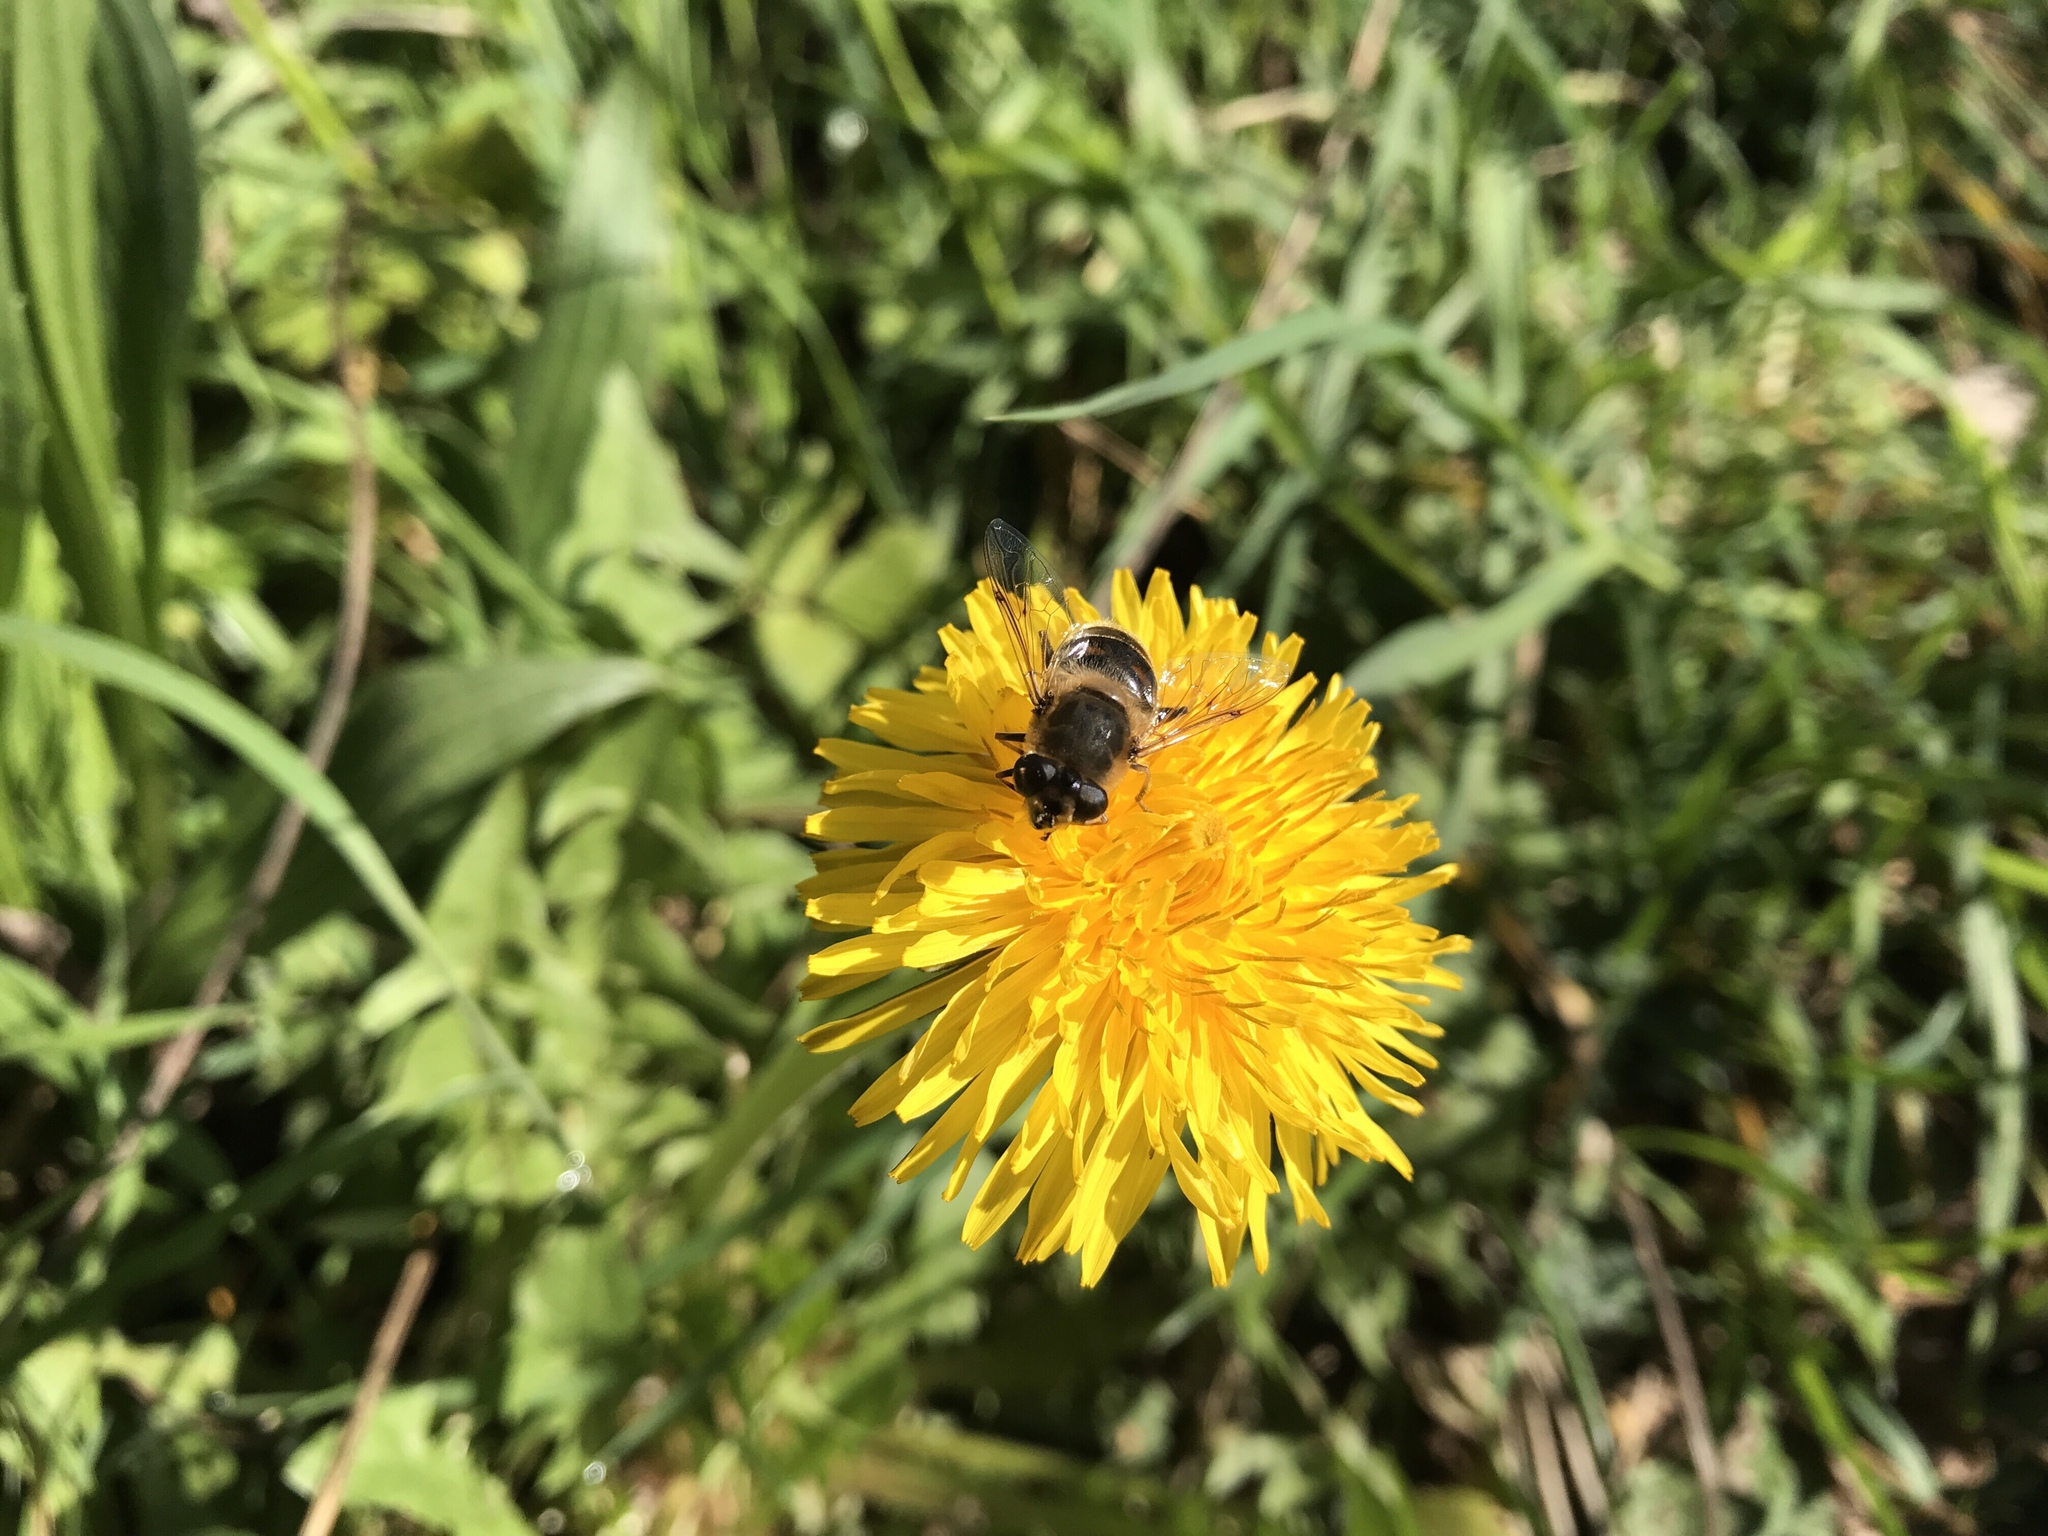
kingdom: Animalia
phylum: Arthropoda
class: Insecta
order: Diptera
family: Syrphidae
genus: Eristalis
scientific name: Eristalis tenax
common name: Drone fly
